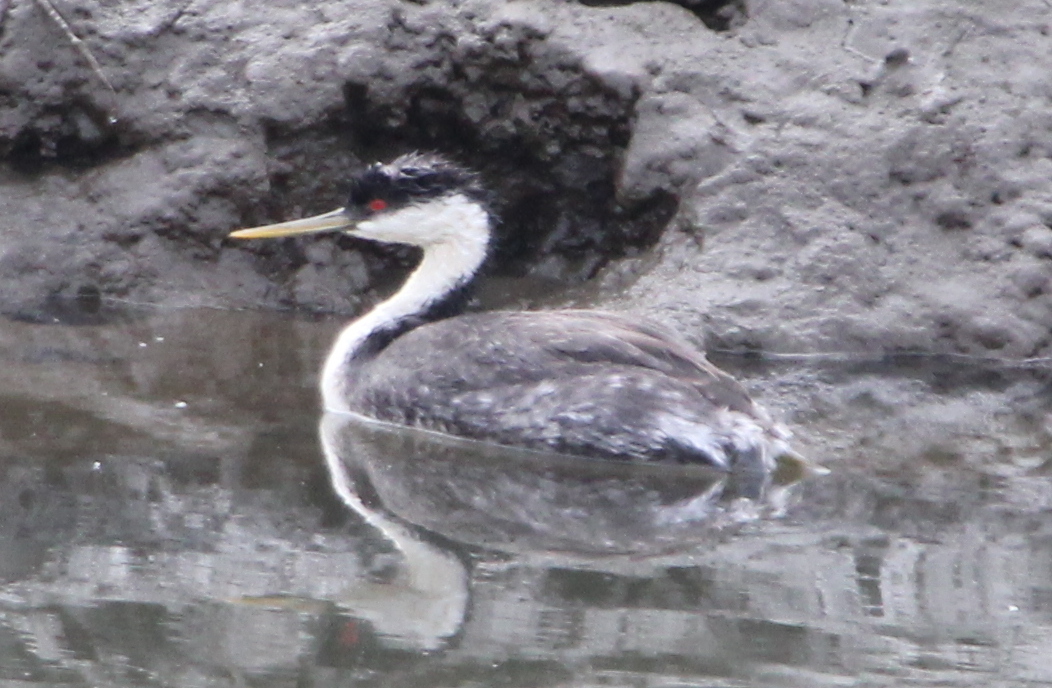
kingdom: Animalia
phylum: Chordata
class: Aves
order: Podicipediformes
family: Podicipedidae
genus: Aechmophorus
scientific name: Aechmophorus occidentalis
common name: Western grebe
